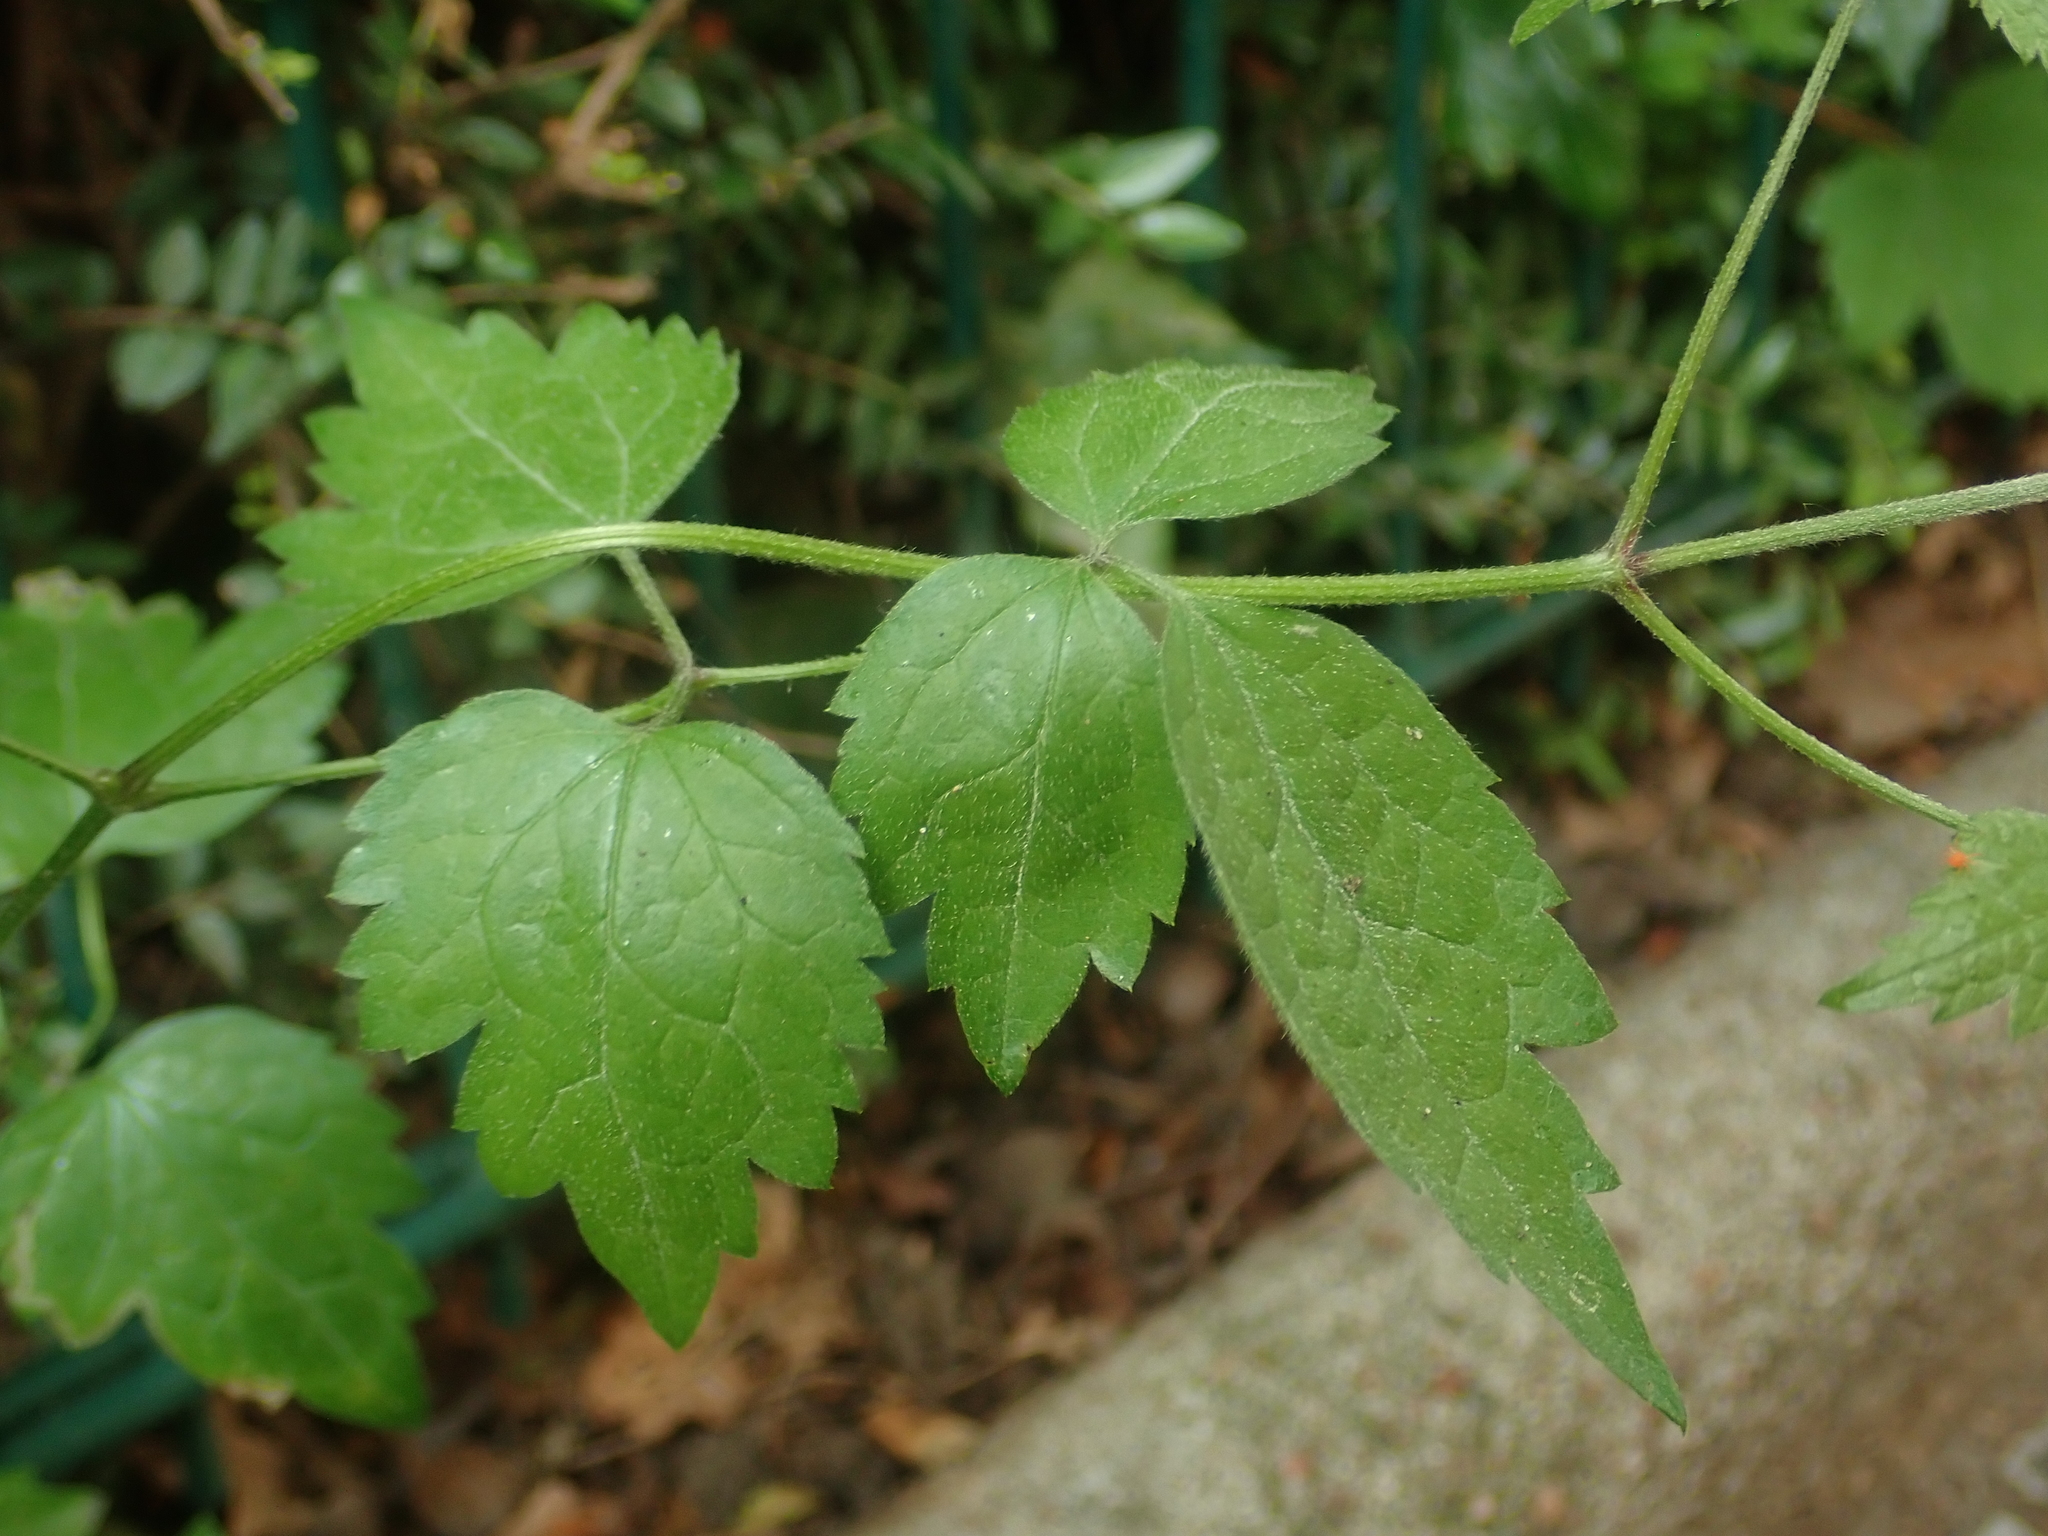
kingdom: Plantae
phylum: Tracheophyta
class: Magnoliopsida
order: Ranunculales
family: Ranunculaceae
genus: Clematis
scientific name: Clematis vitalba
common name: Evergreen clematis
